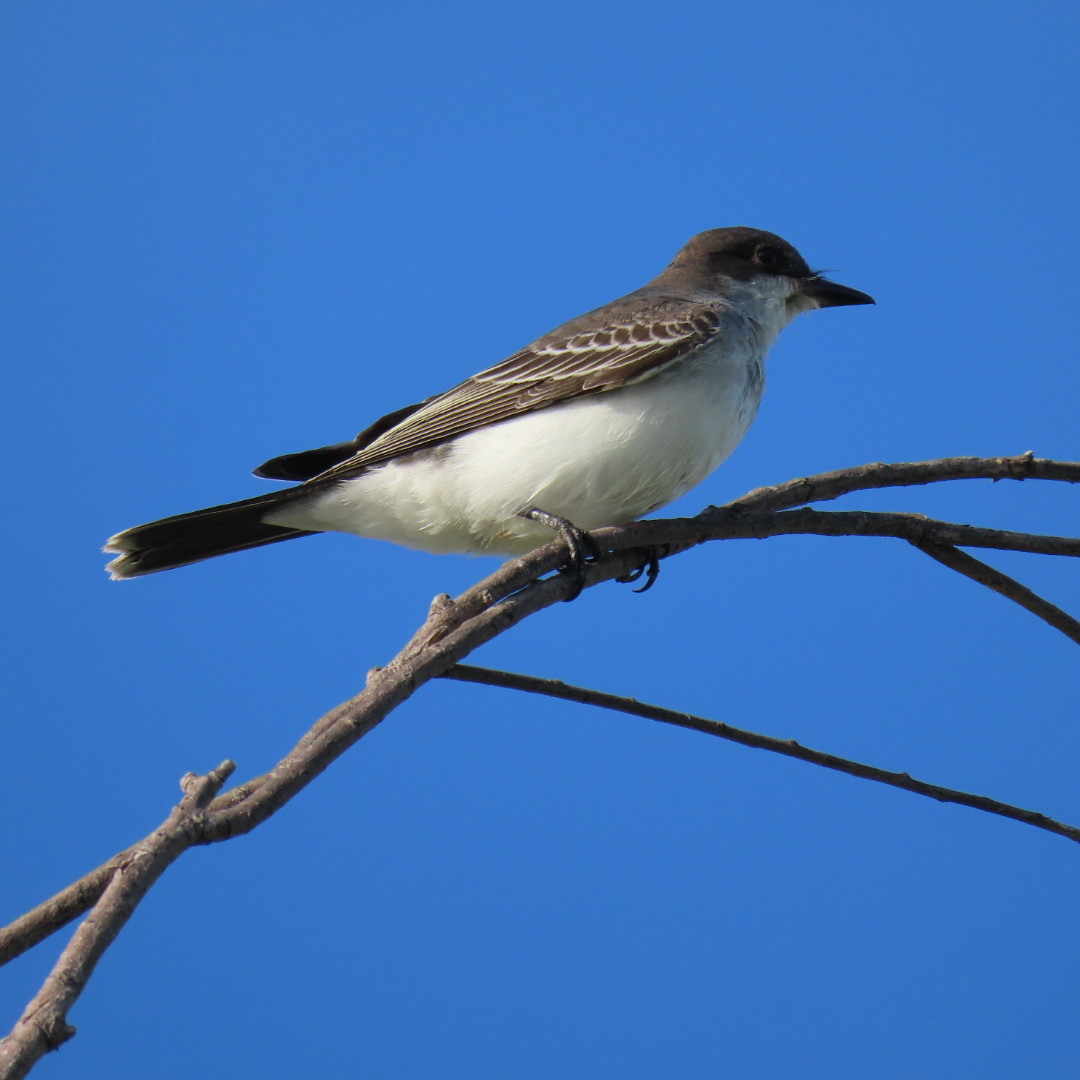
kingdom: Animalia
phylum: Chordata
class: Aves
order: Passeriformes
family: Tyrannidae
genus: Tyrannus
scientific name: Tyrannus tyrannus
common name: Eastern kingbird
